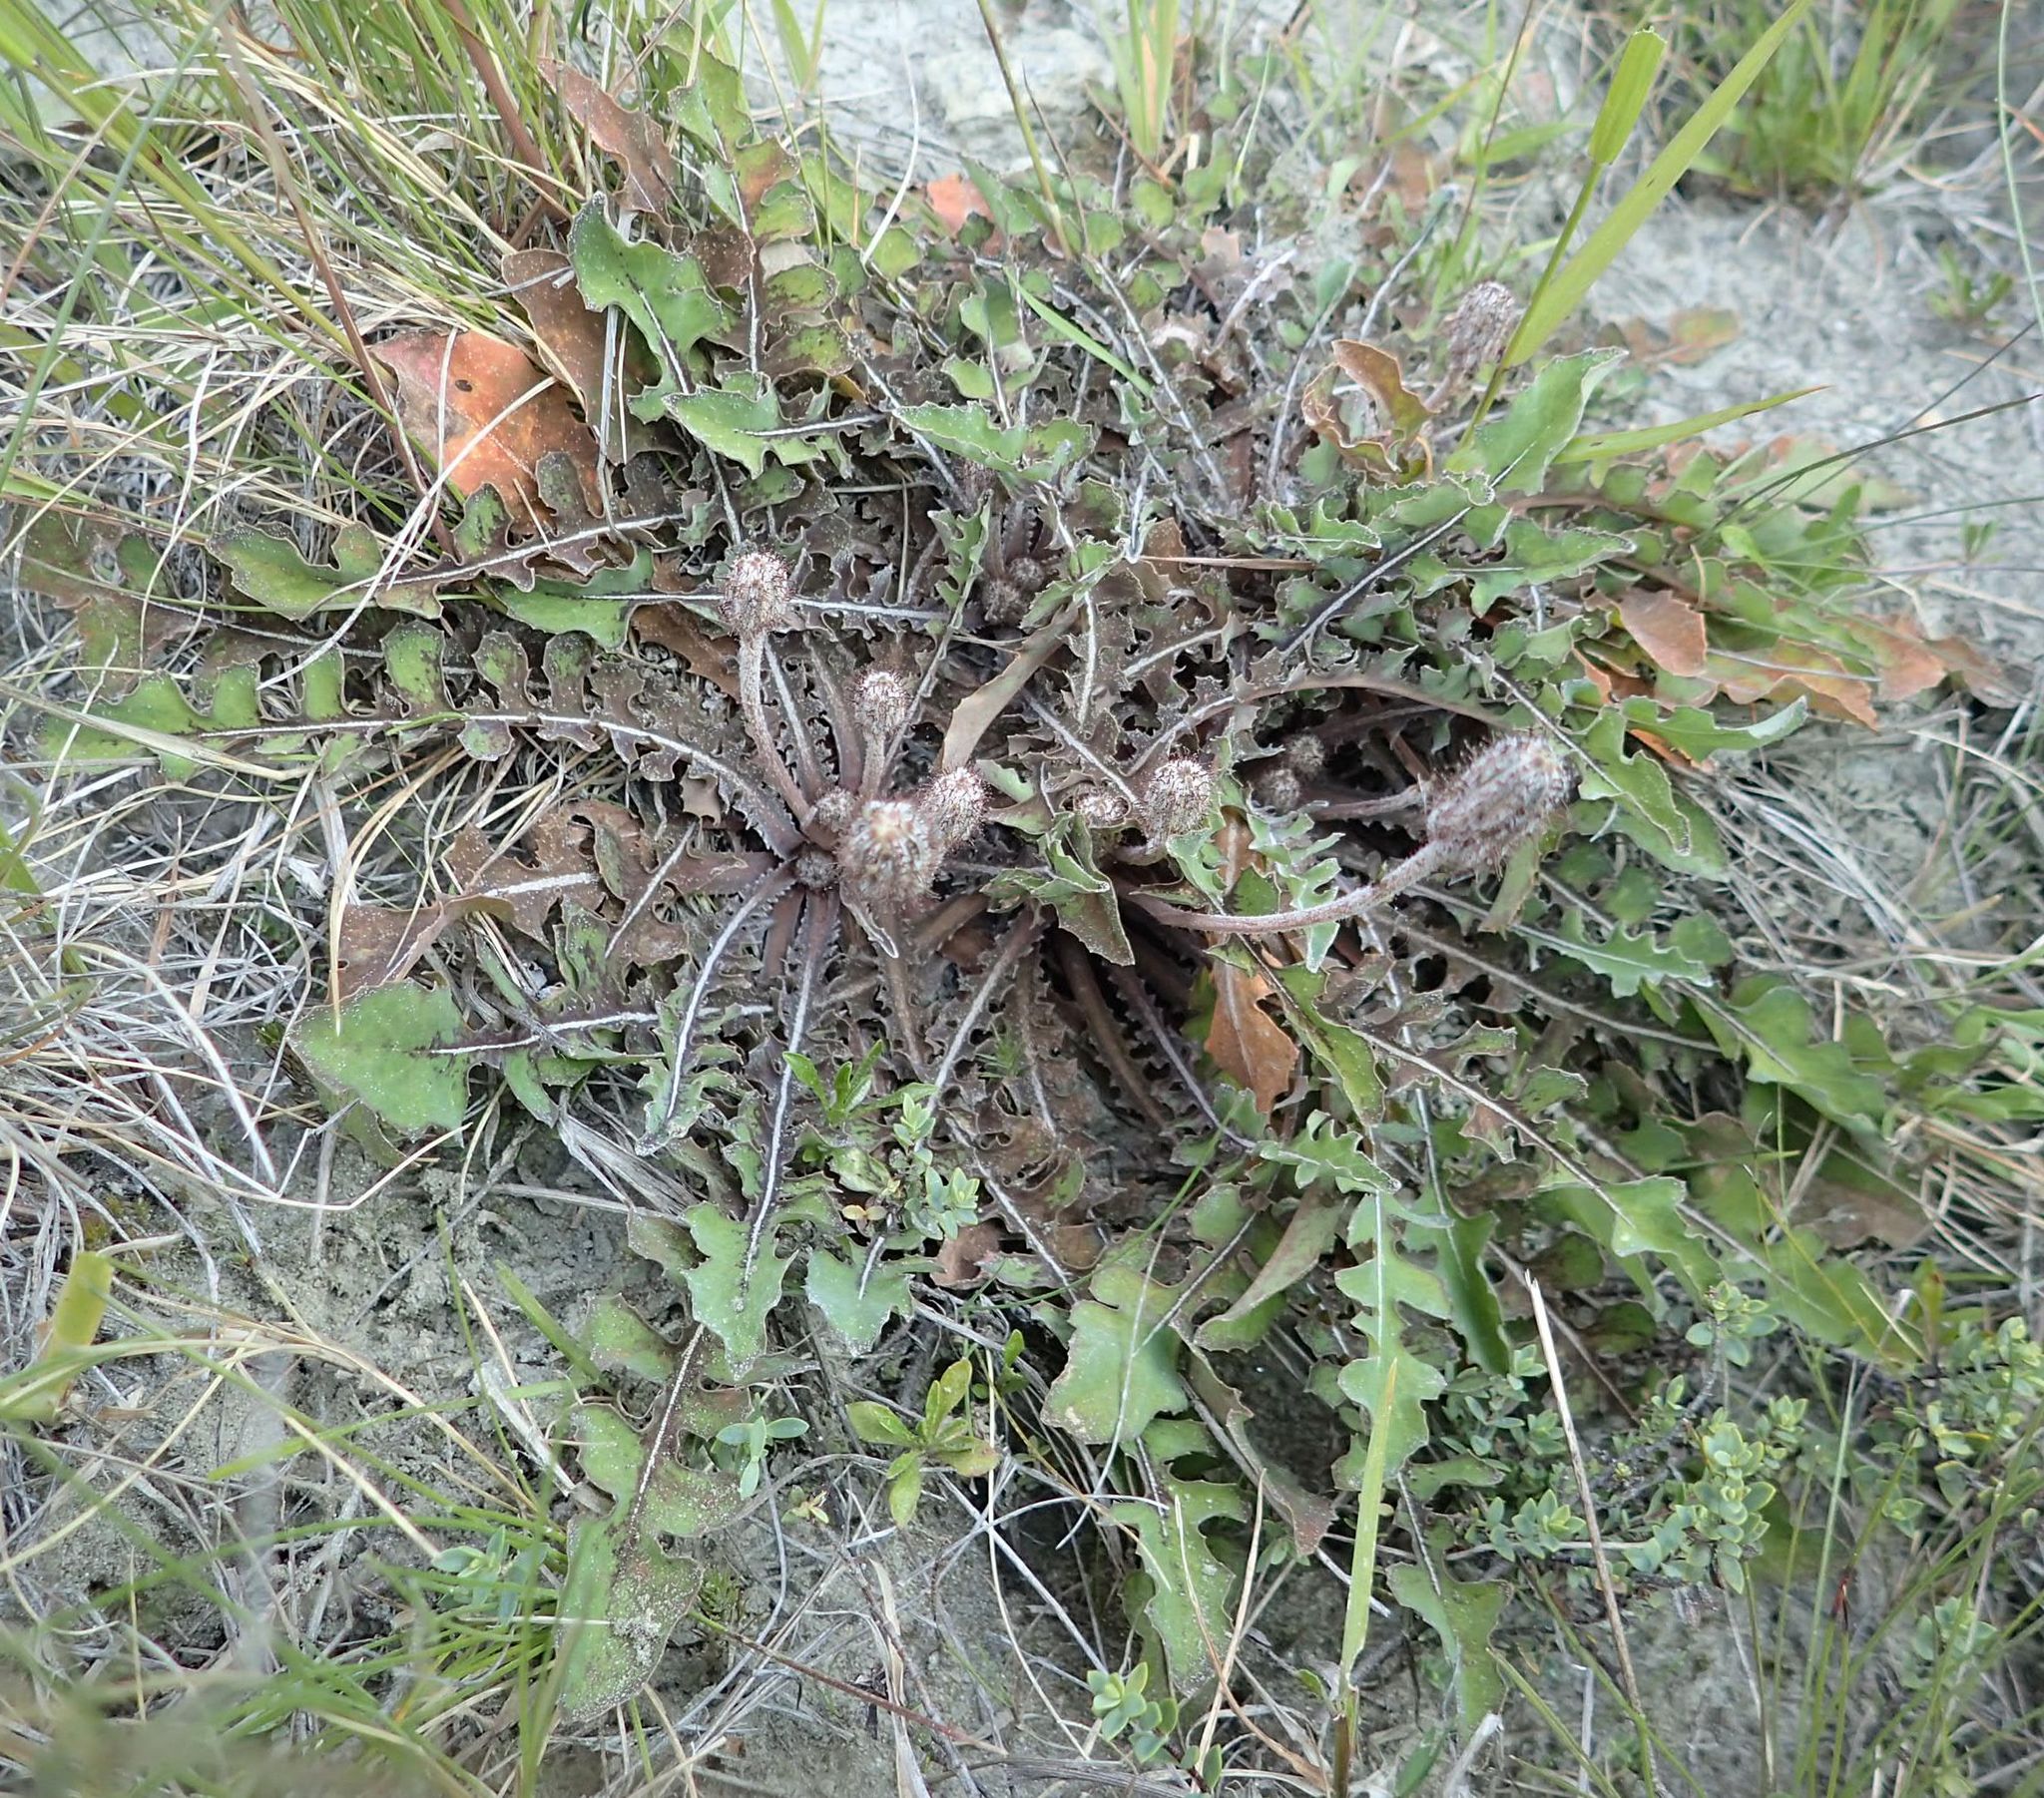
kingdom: Plantae
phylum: Tracheophyta
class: Magnoliopsida
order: Asterales
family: Asteraceae
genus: Sonchus
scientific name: Sonchus novae-zelandiae
